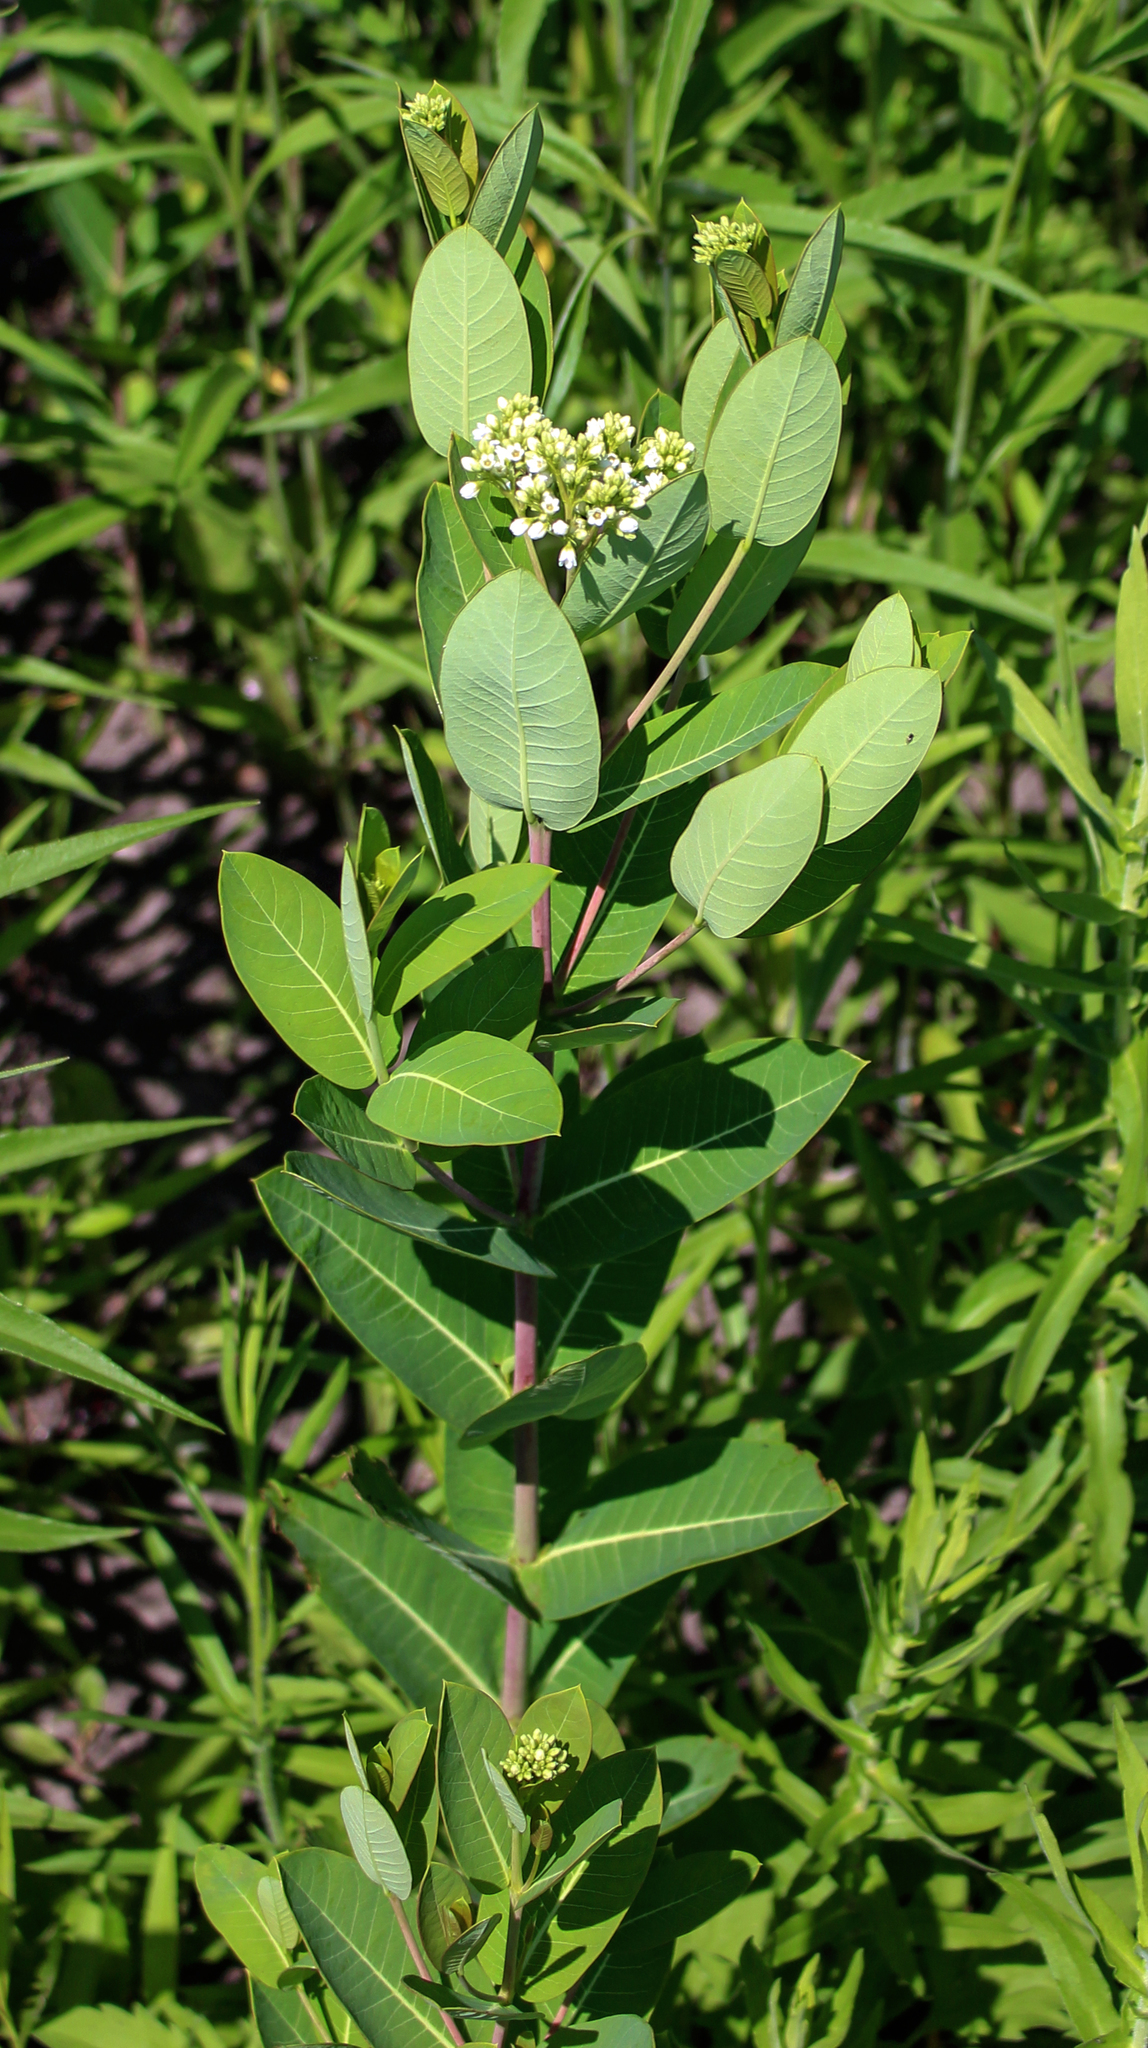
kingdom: Plantae
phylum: Tracheophyta
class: Magnoliopsida
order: Gentianales
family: Apocynaceae
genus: Apocynum
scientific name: Apocynum cannabinum
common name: Hemp dogbane
